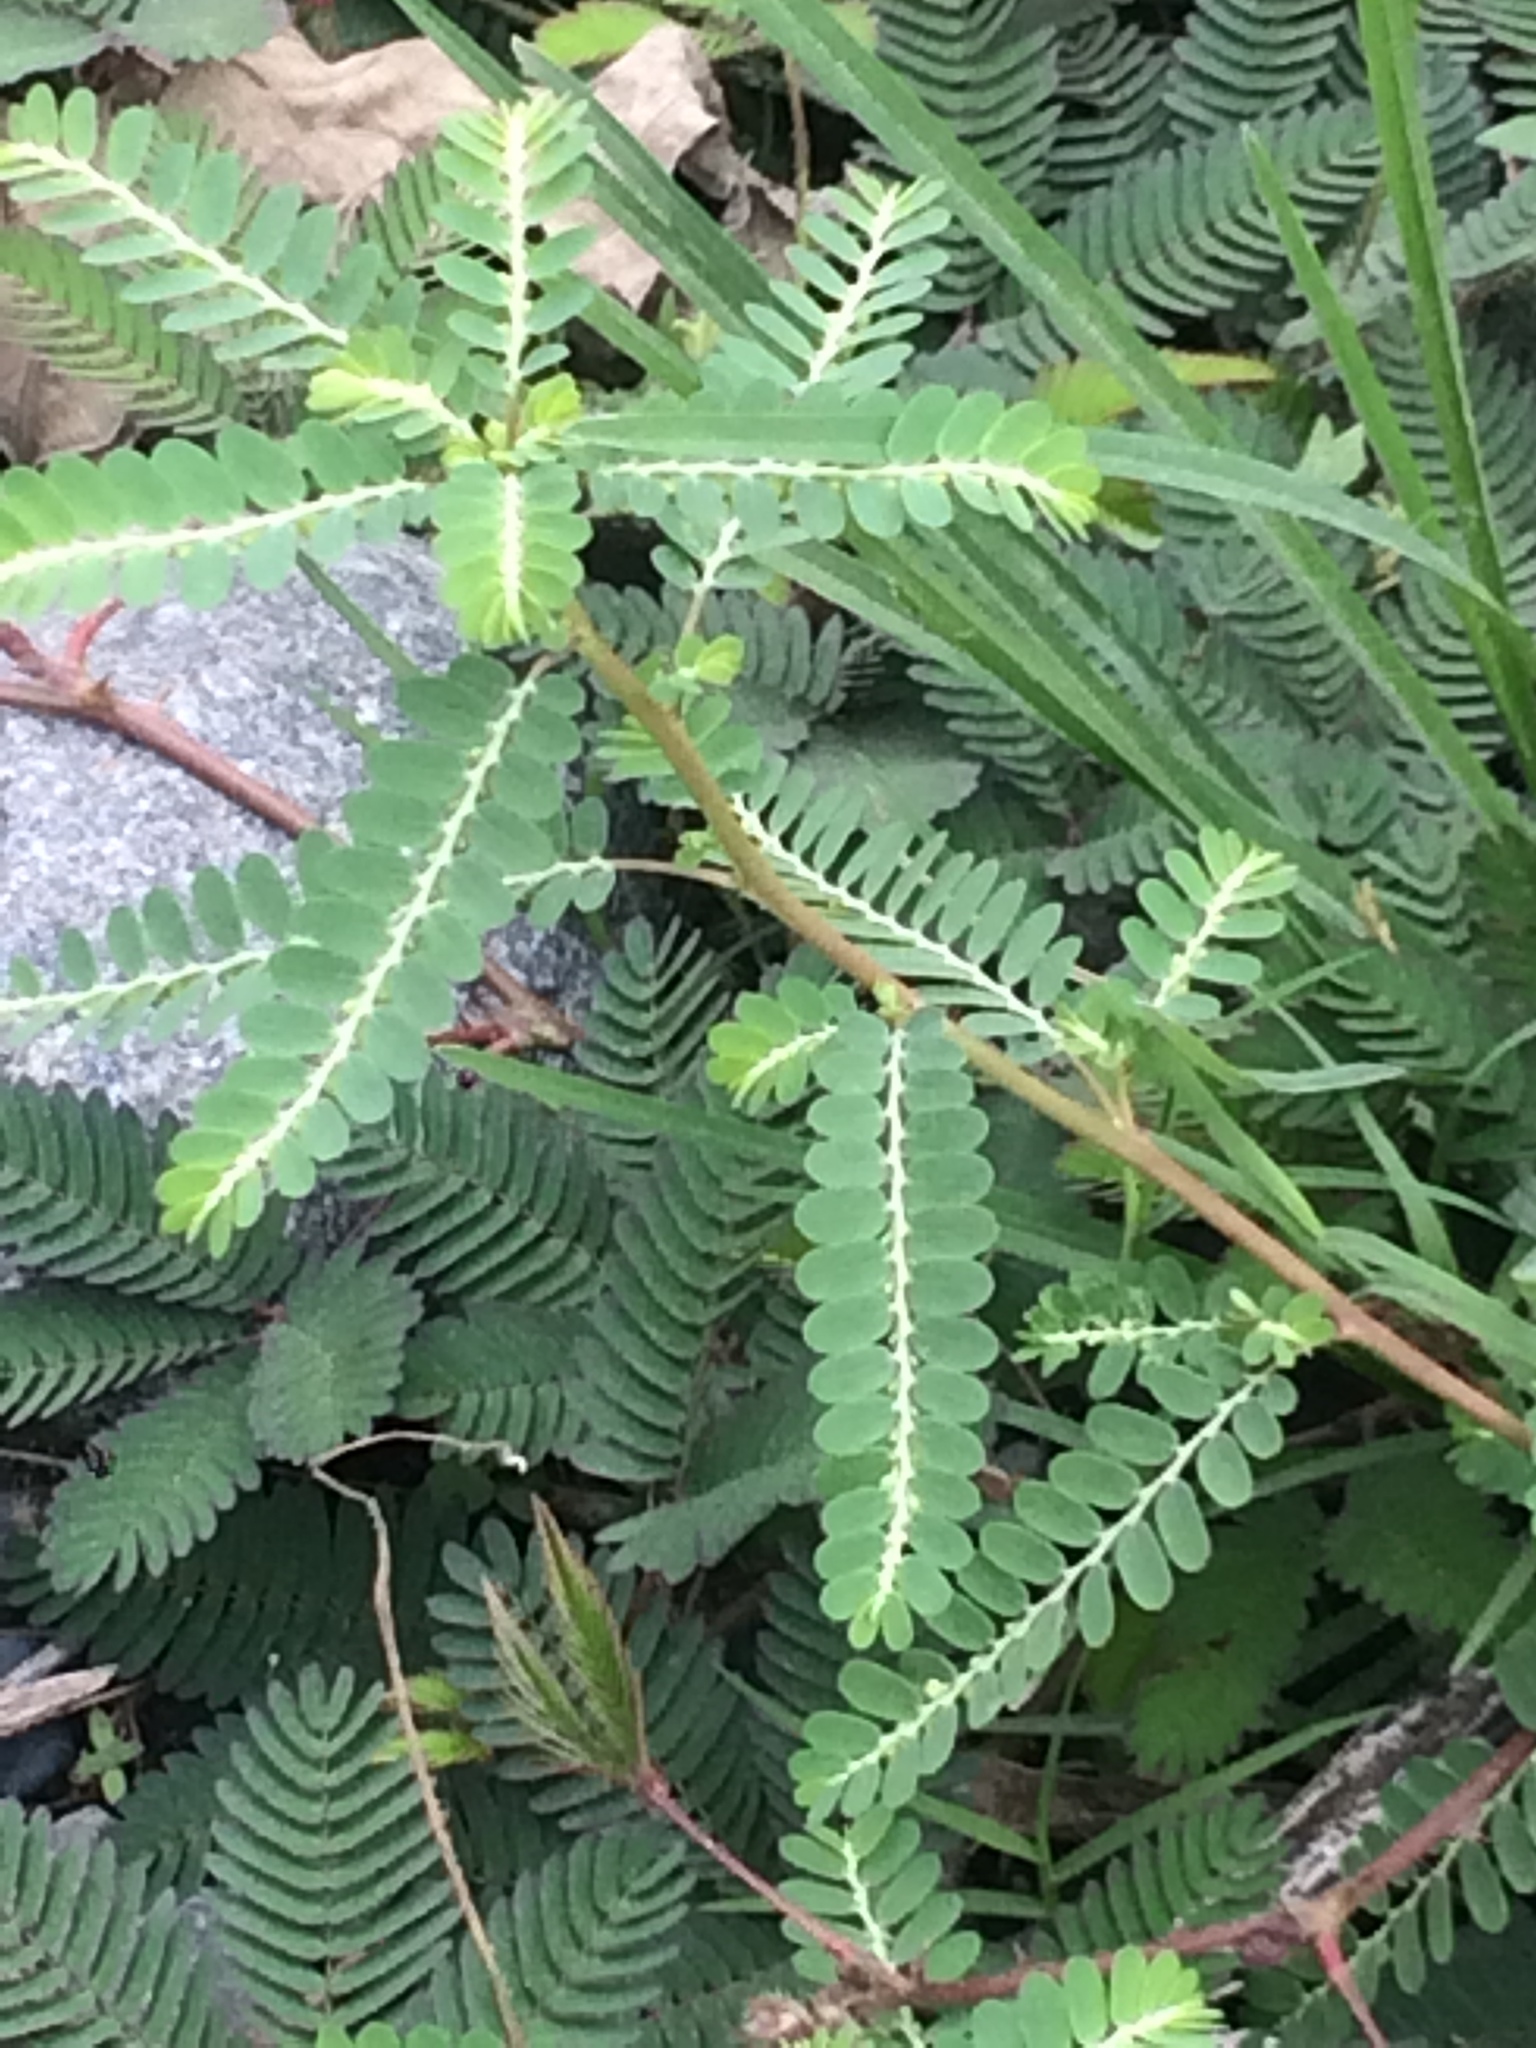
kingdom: Plantae
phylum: Tracheophyta
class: Magnoliopsida
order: Malpighiales
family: Phyllanthaceae
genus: Phyllanthus
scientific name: Phyllanthus urinaria
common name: Chamber bitter
